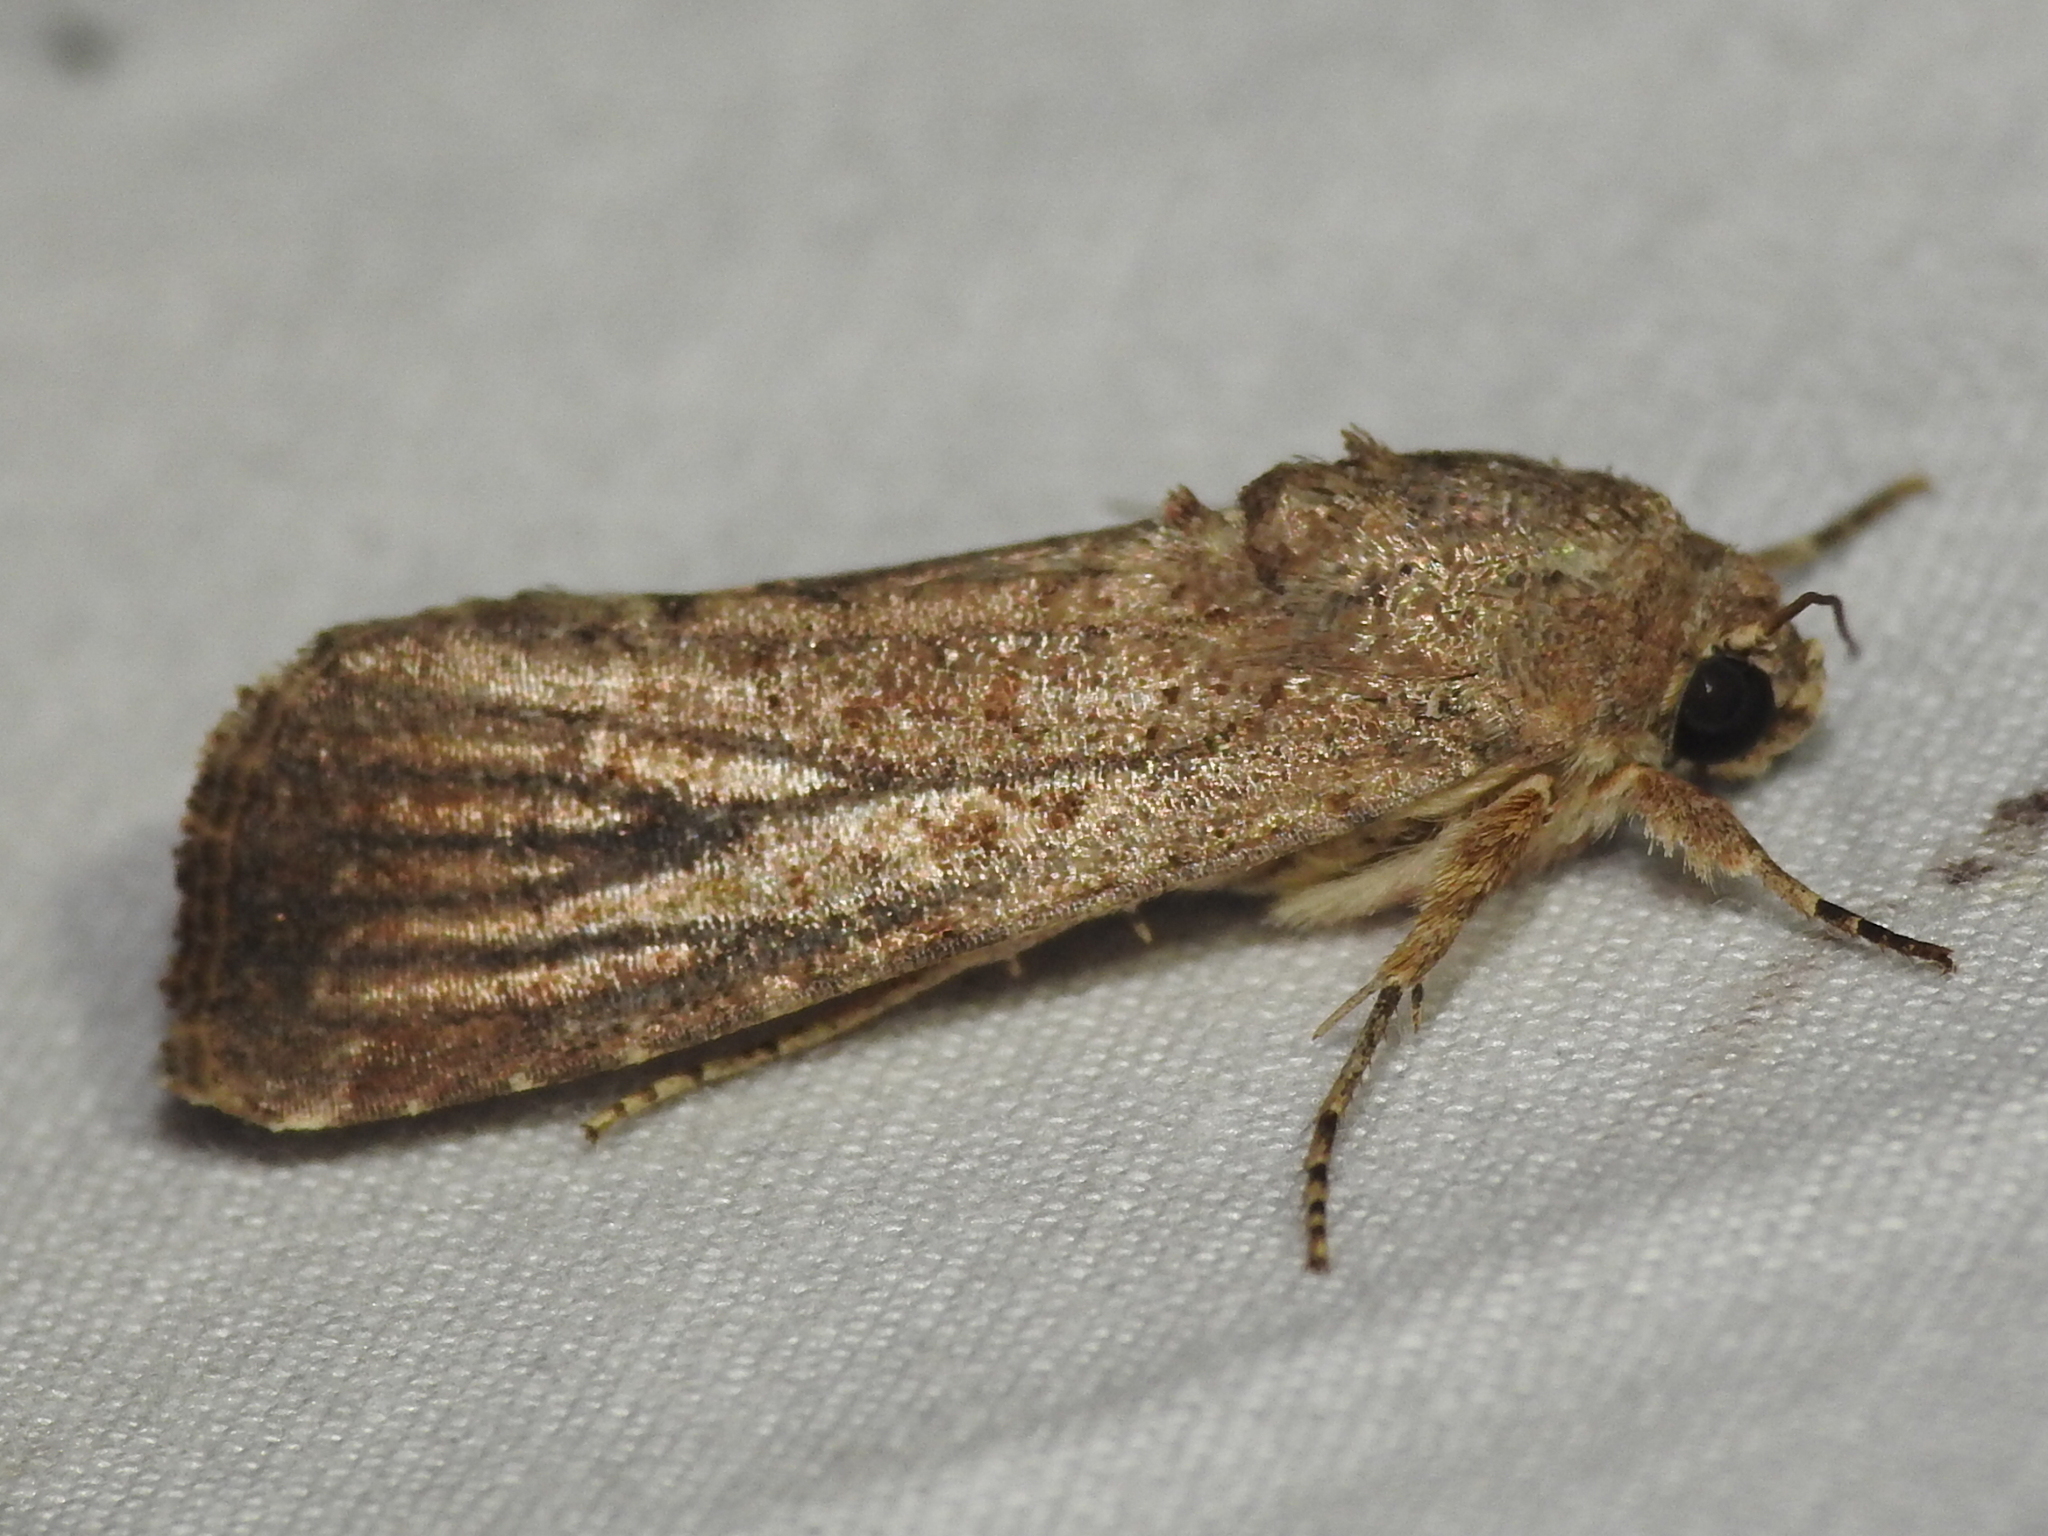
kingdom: Animalia
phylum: Arthropoda
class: Insecta
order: Lepidoptera
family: Noctuidae
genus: Spodoptera
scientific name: Spodoptera frugiperda
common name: Fall armyworm
